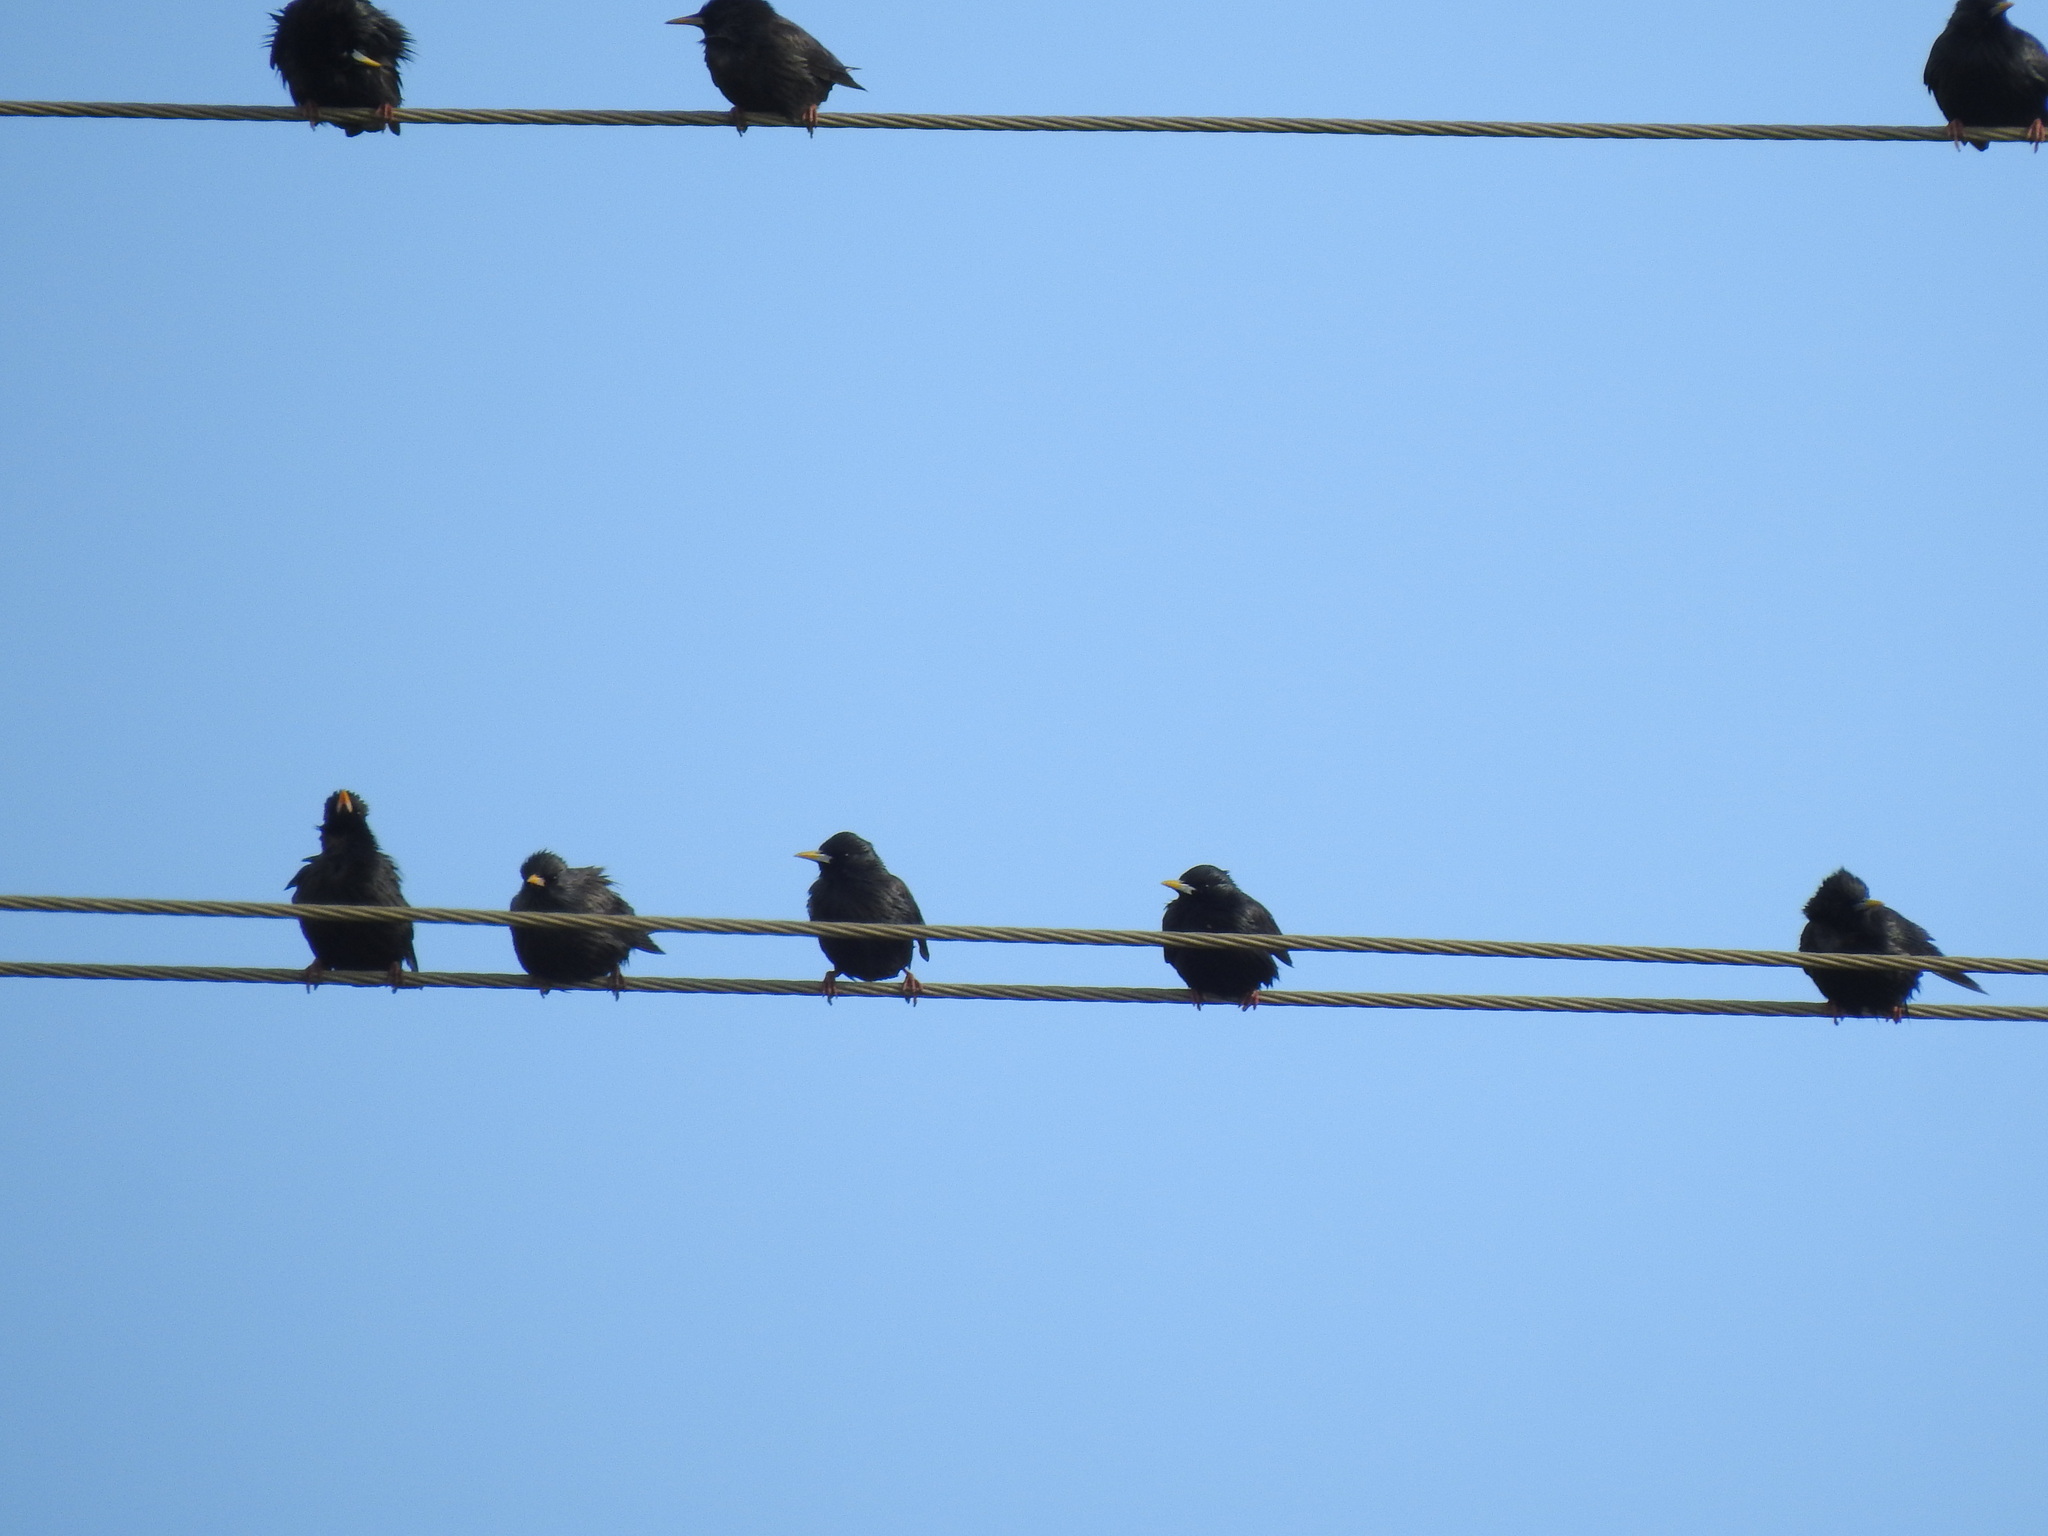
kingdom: Animalia
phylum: Chordata
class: Aves
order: Passeriformes
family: Sturnidae
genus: Sturnus
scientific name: Sturnus unicolor
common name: Spotless starling
